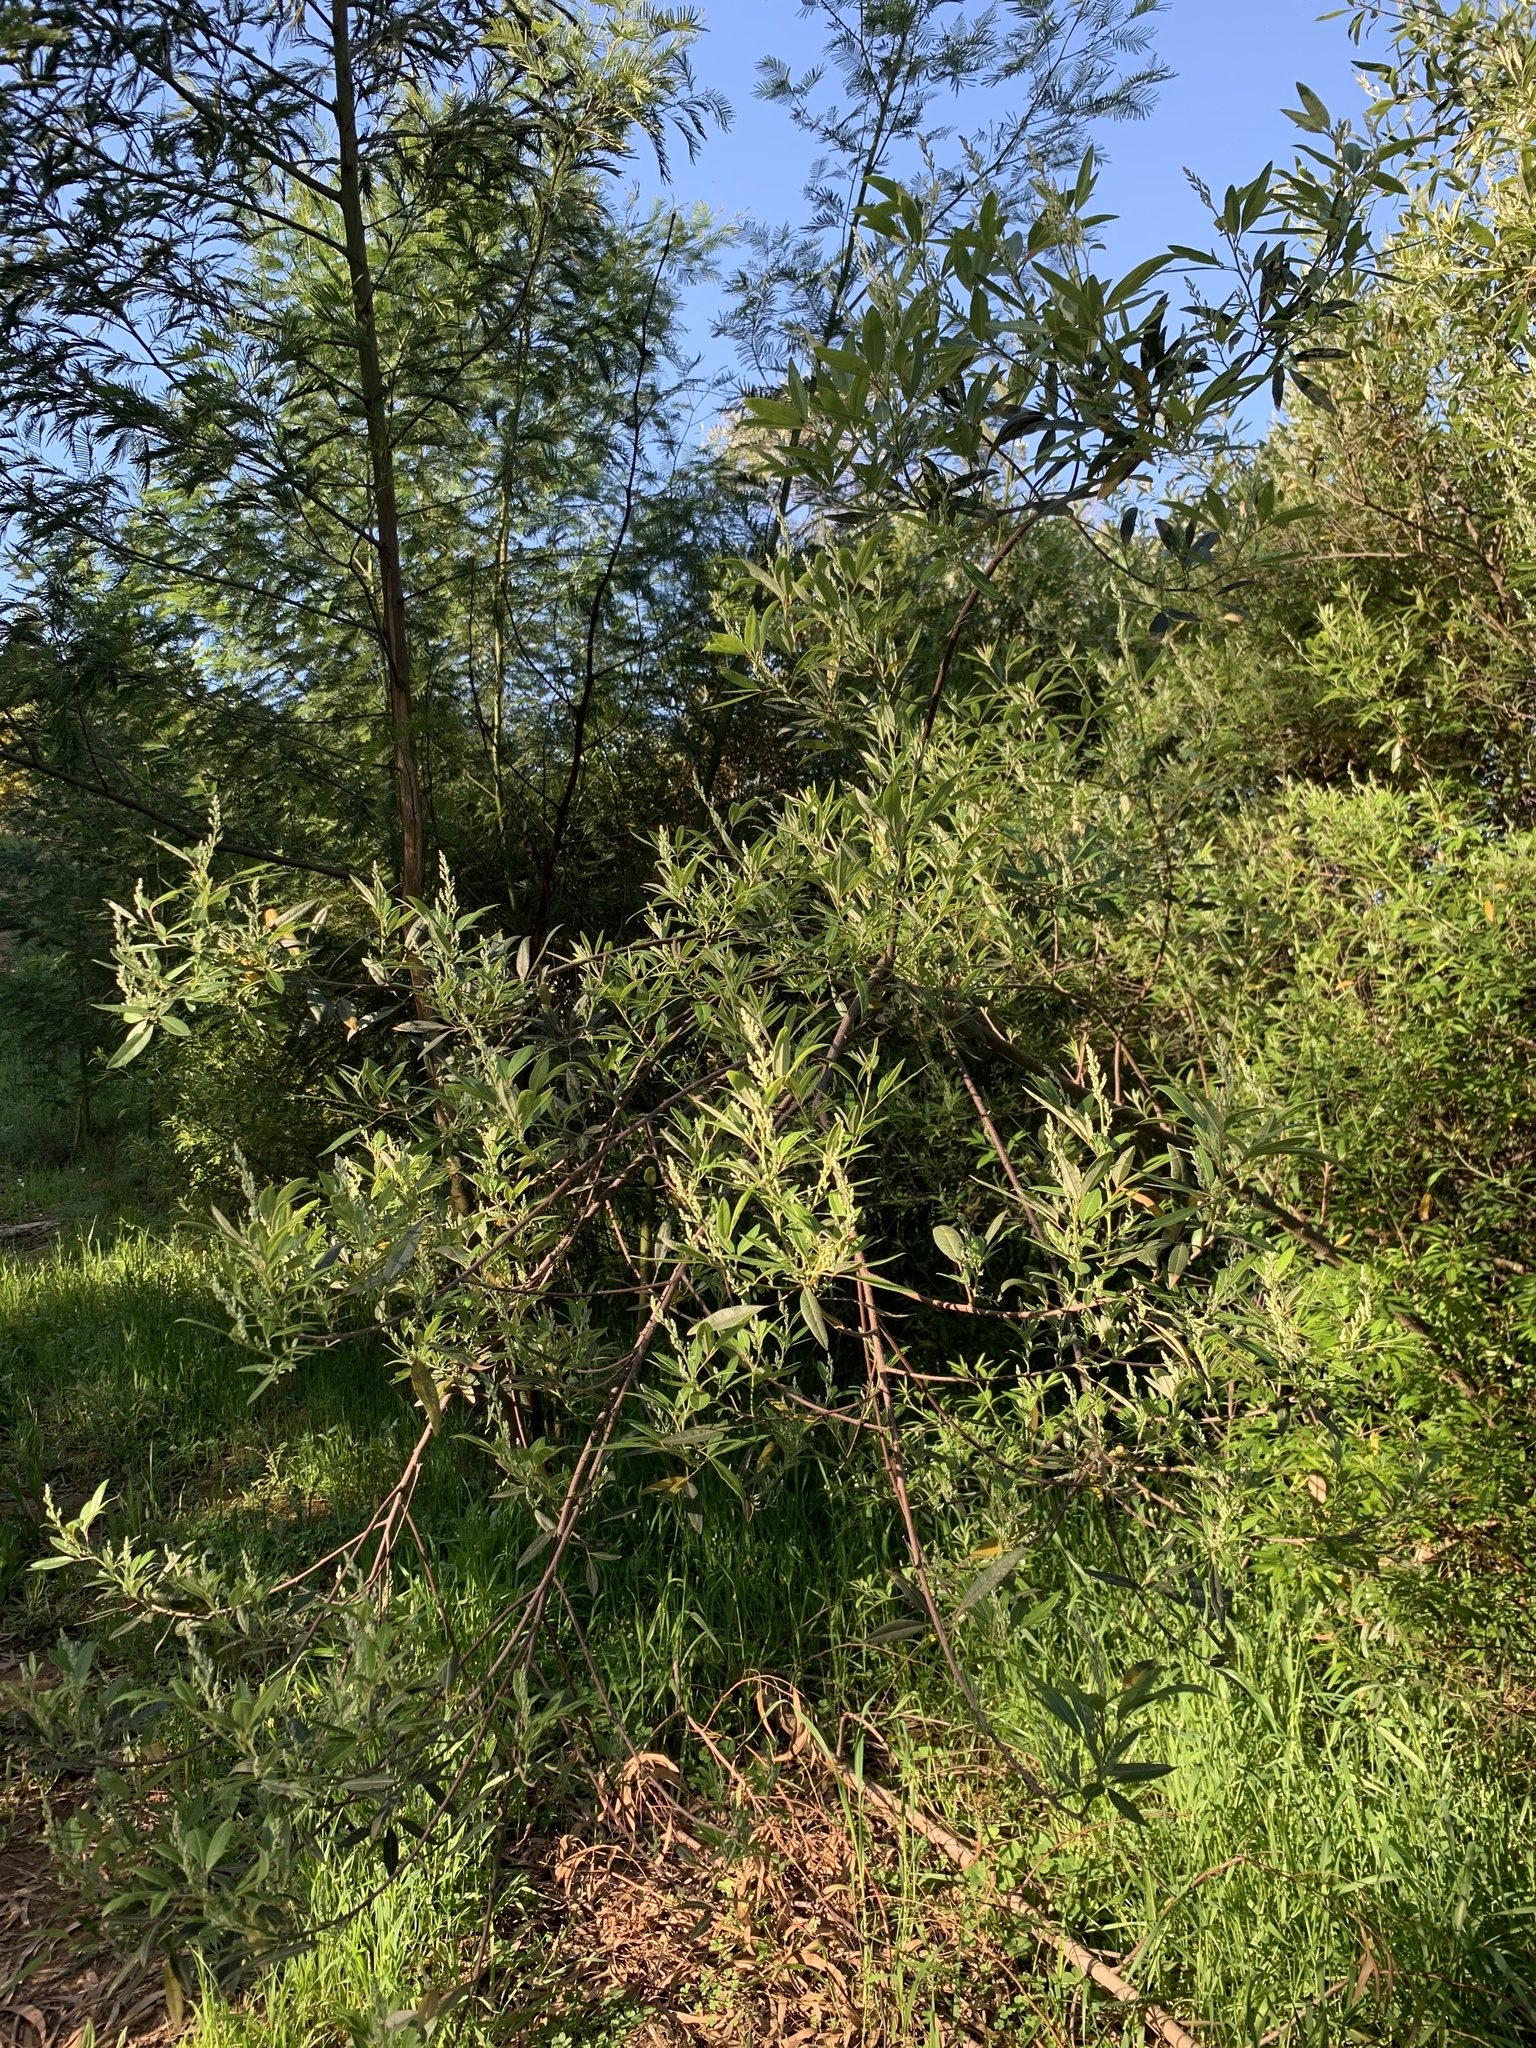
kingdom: Plantae
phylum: Tracheophyta
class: Magnoliopsida
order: Sapindales
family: Anacardiaceae
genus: Searsia
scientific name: Searsia angustifolia
